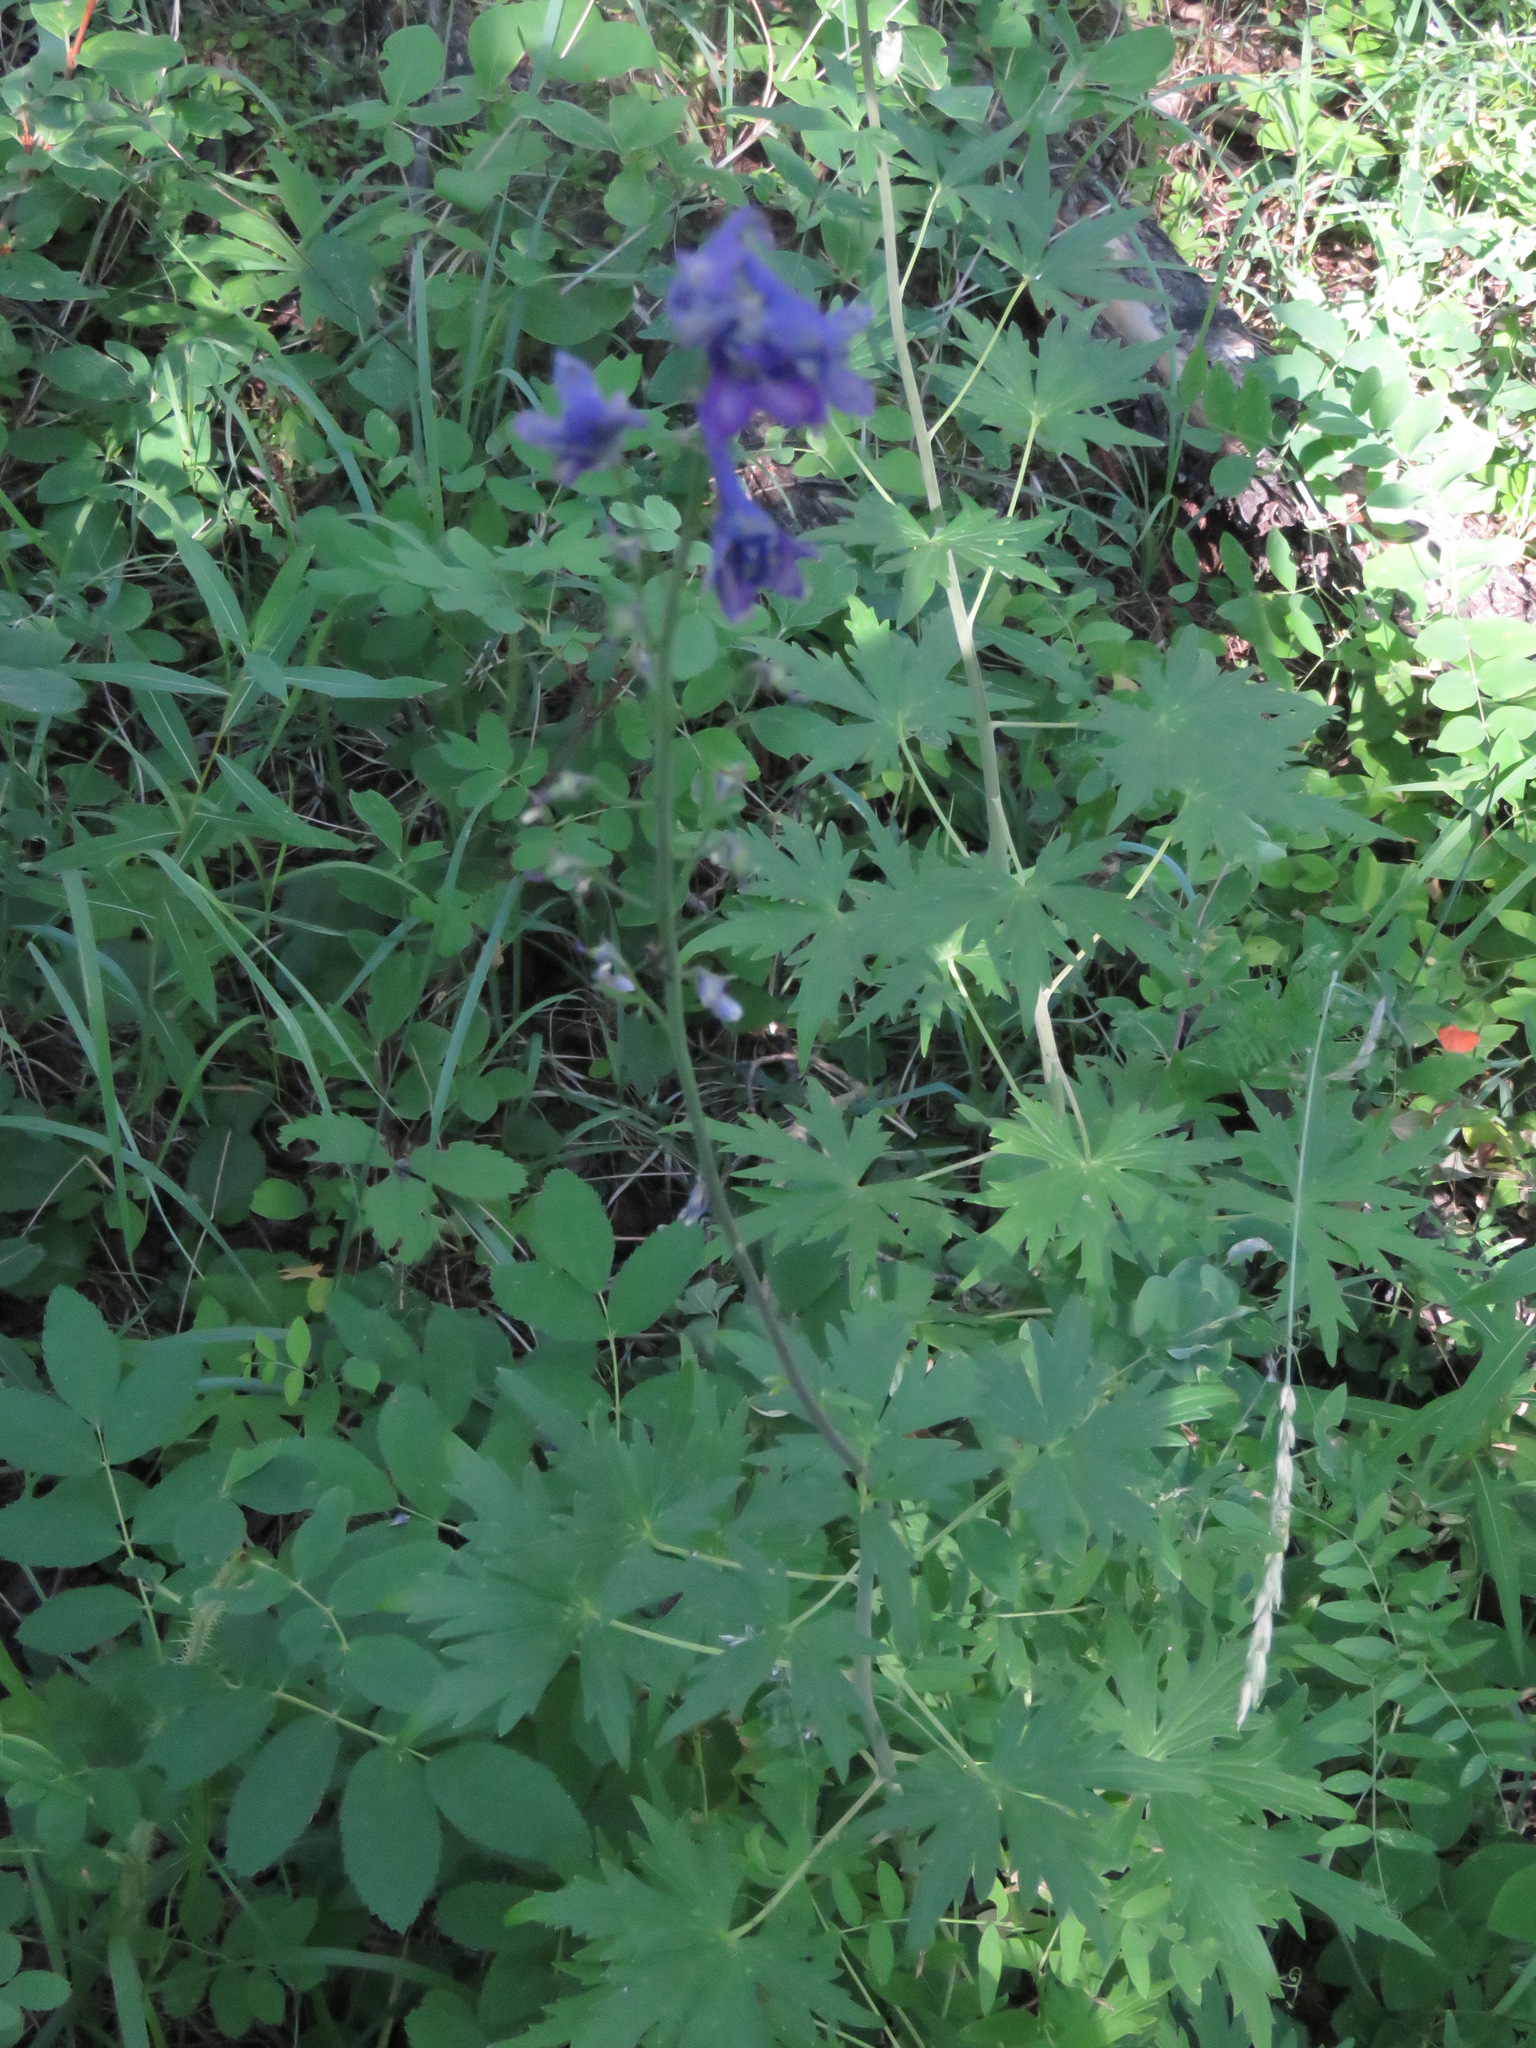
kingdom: Plantae
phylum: Tracheophyta
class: Magnoliopsida
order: Ranunculales
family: Ranunculaceae
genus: Delphinium
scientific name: Delphinium glaucum
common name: Brown's larkspur
